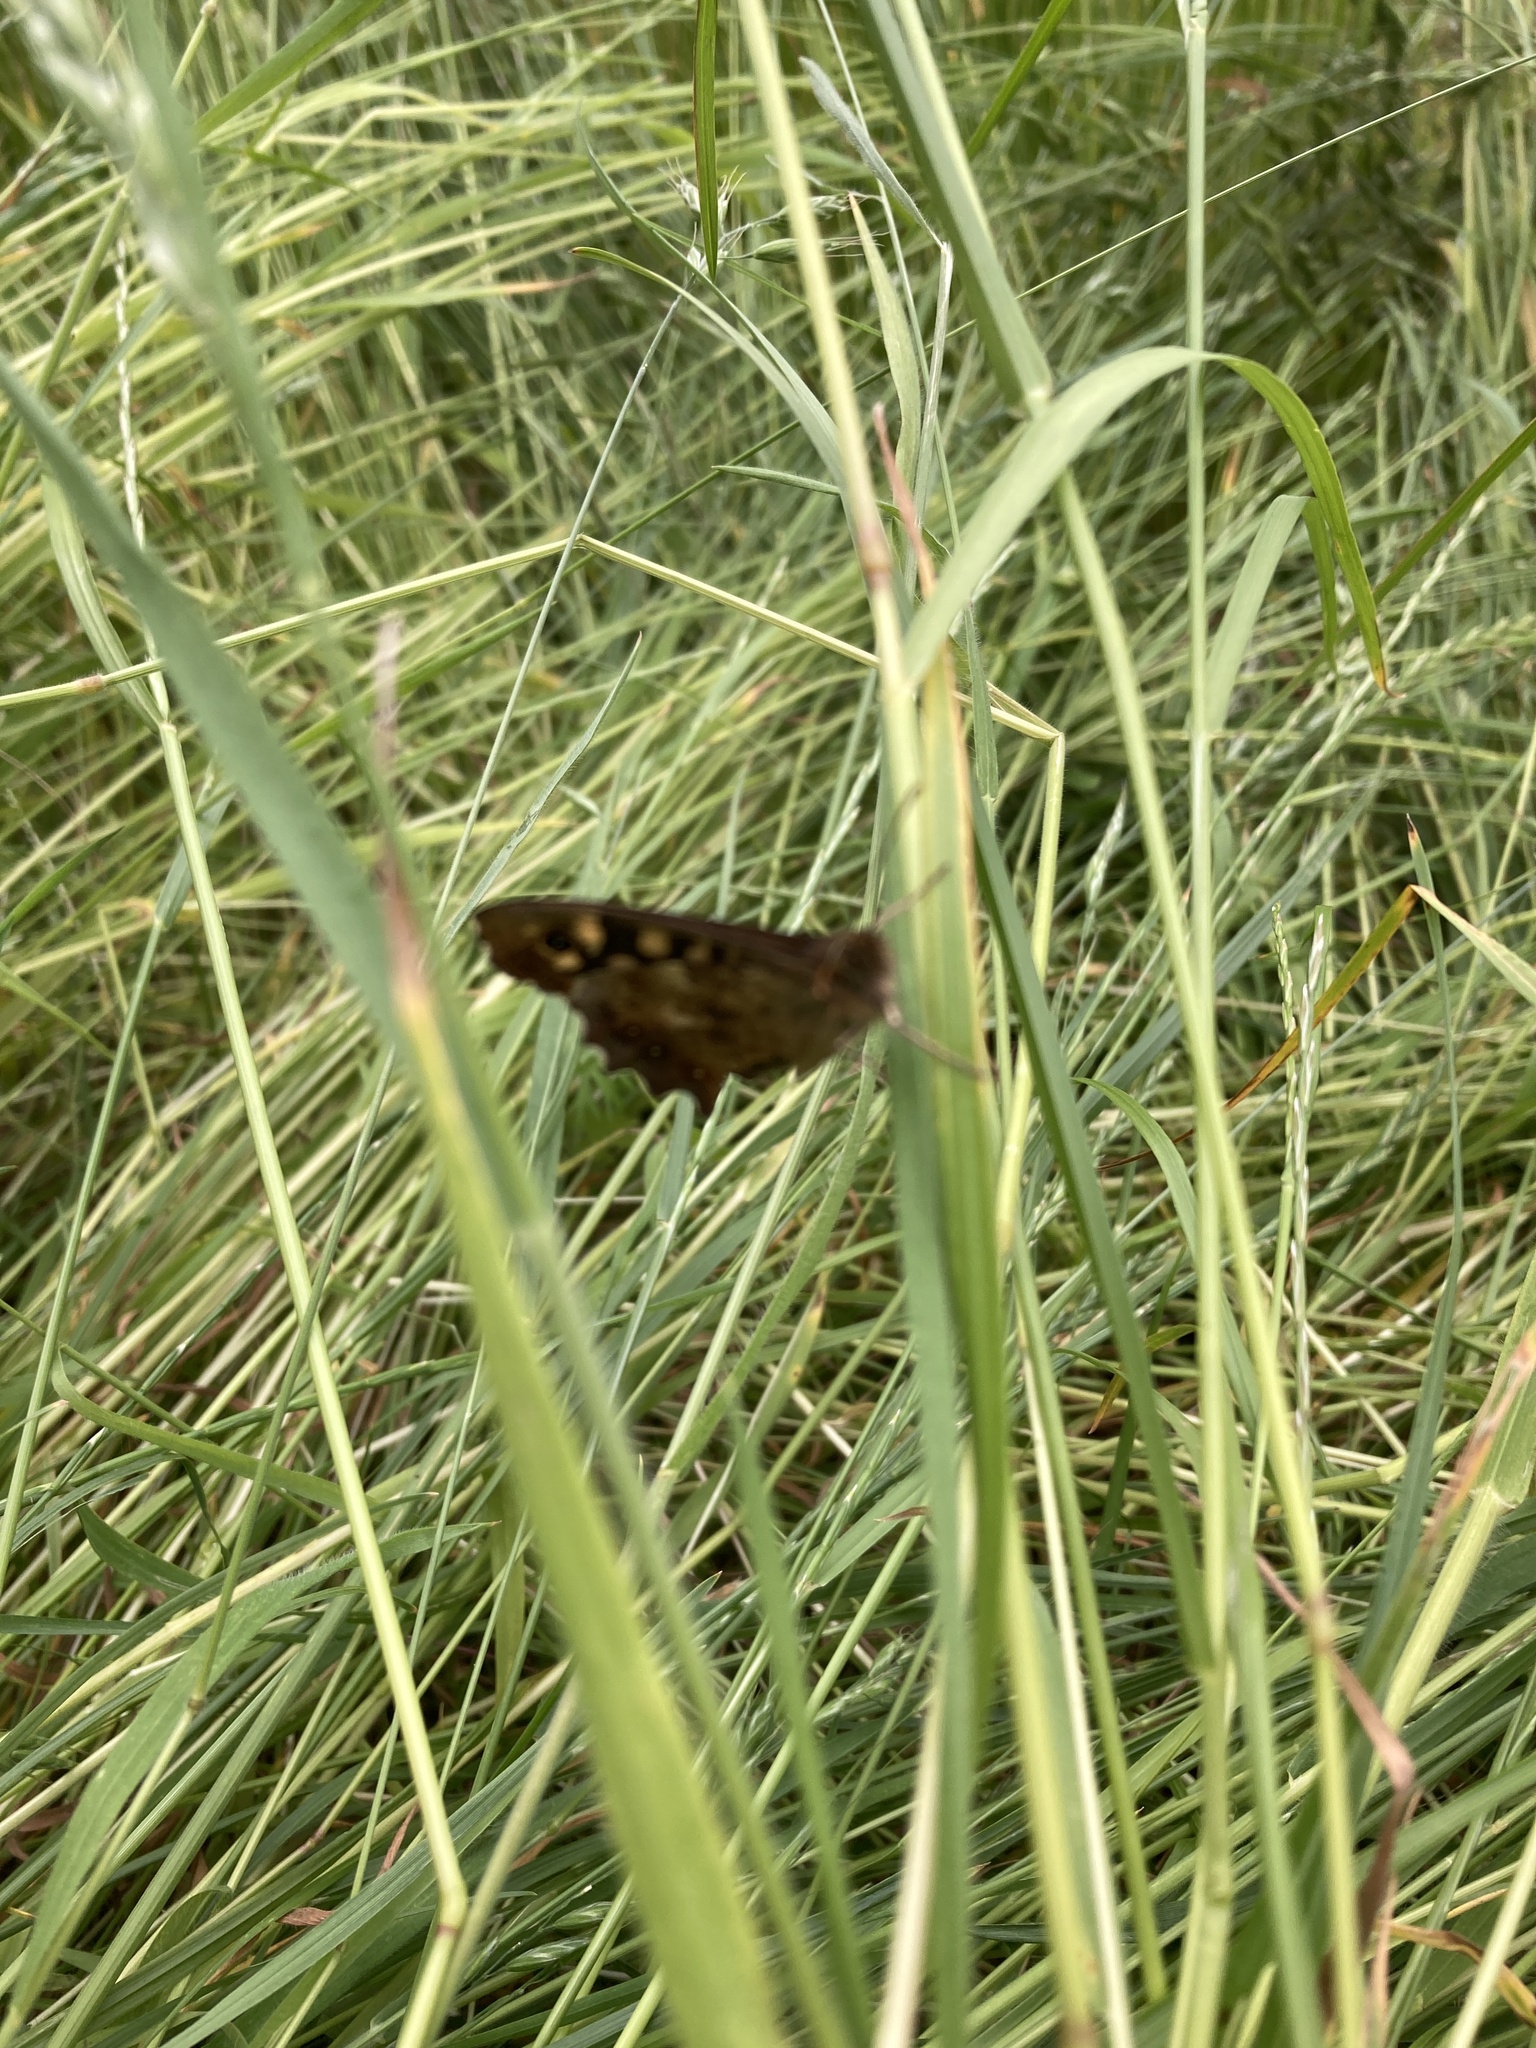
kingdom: Animalia
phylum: Arthropoda
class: Insecta
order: Lepidoptera
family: Nymphalidae
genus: Pararge
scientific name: Pararge aegeria
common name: Speckled wood
